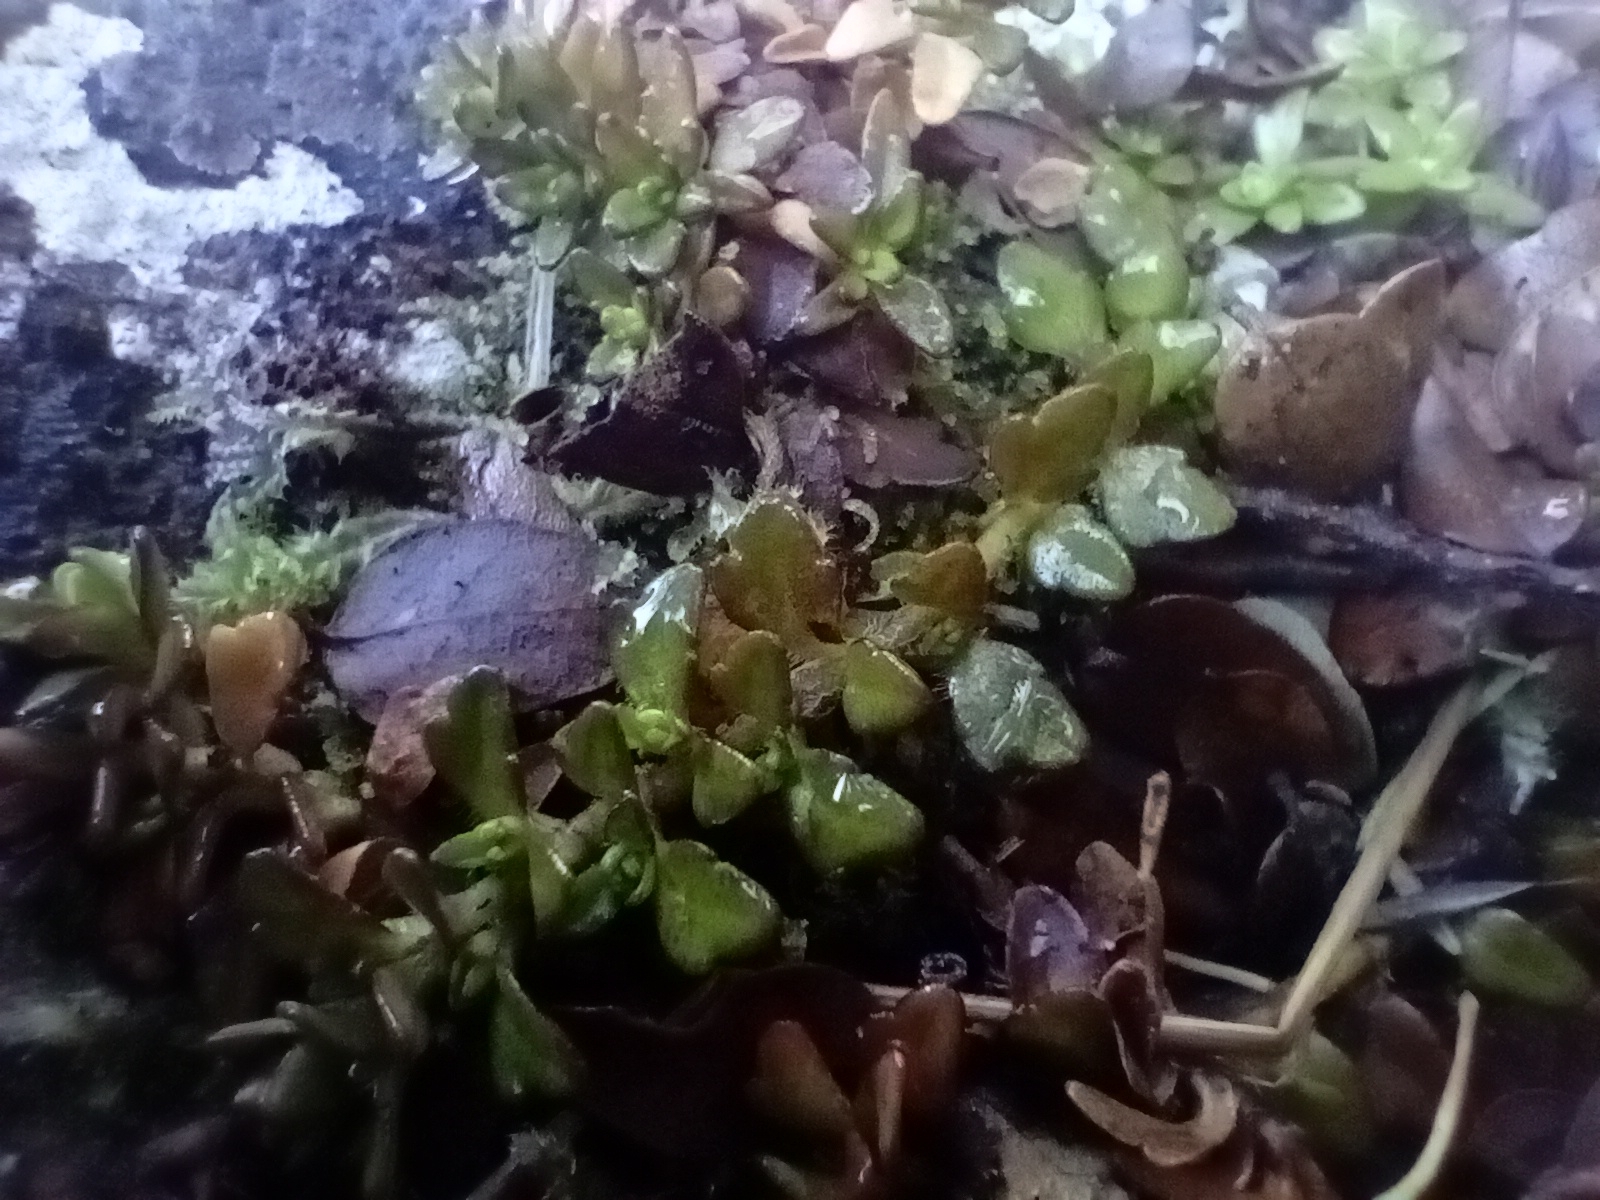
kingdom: Plantae
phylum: Tracheophyta
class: Magnoliopsida
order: Lamiales
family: Plantaginaceae
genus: Ourisia
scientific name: Ourisia caespitosa
